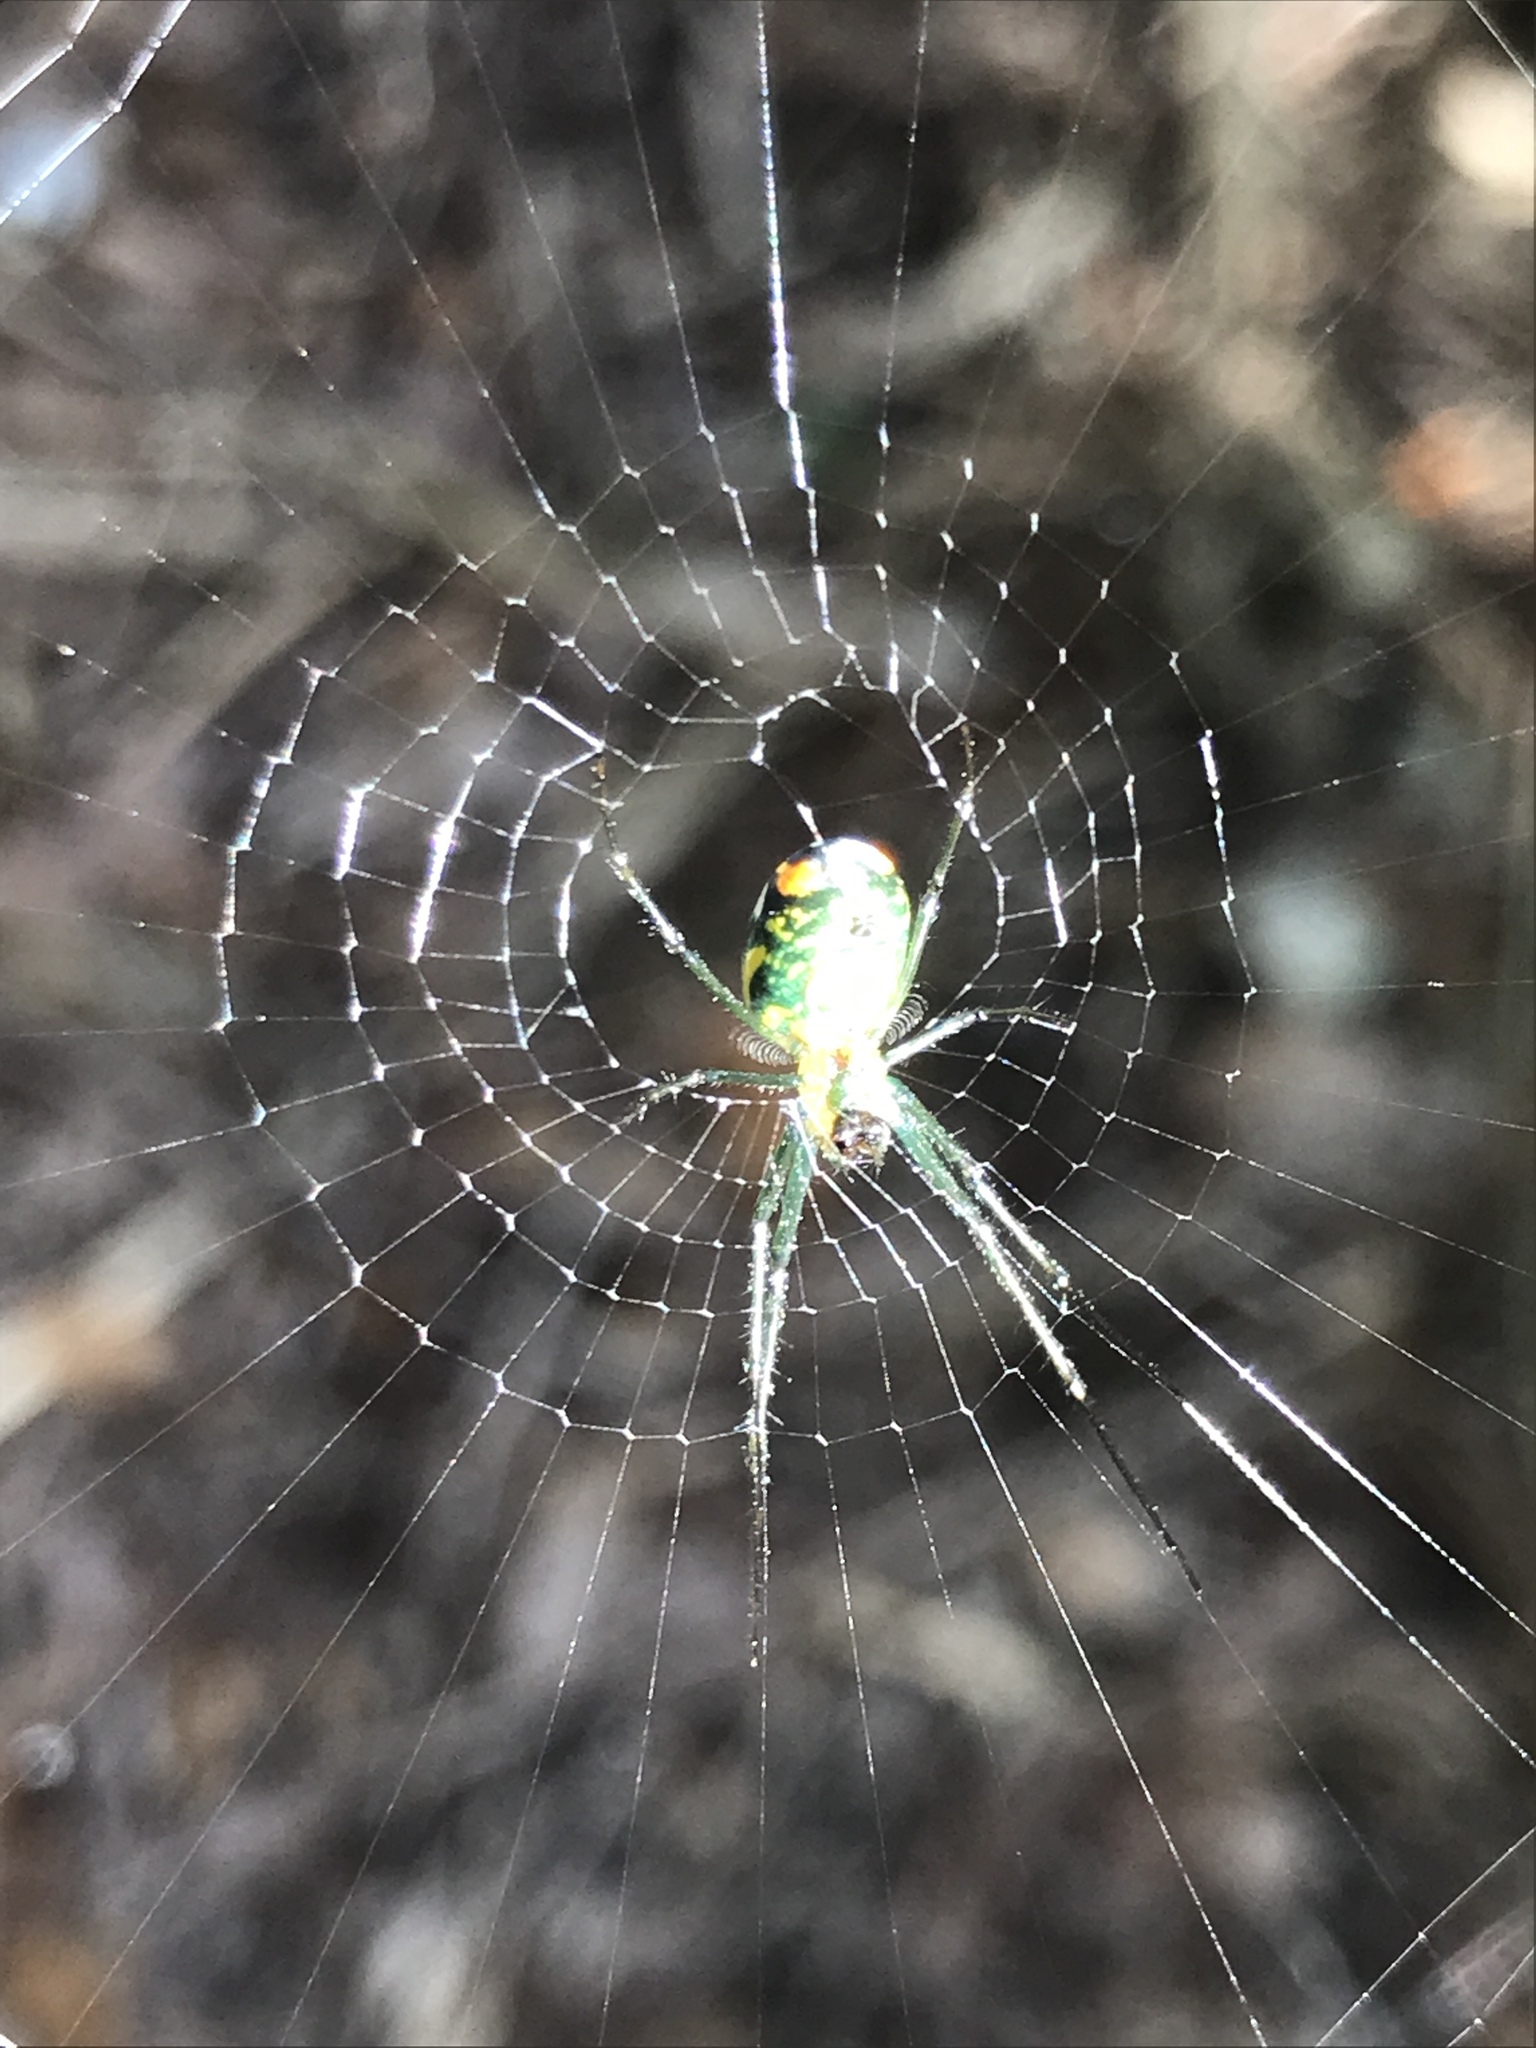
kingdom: Animalia
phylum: Arthropoda
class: Arachnida
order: Araneae
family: Tetragnathidae
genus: Leucauge
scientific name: Leucauge argyrobapta
